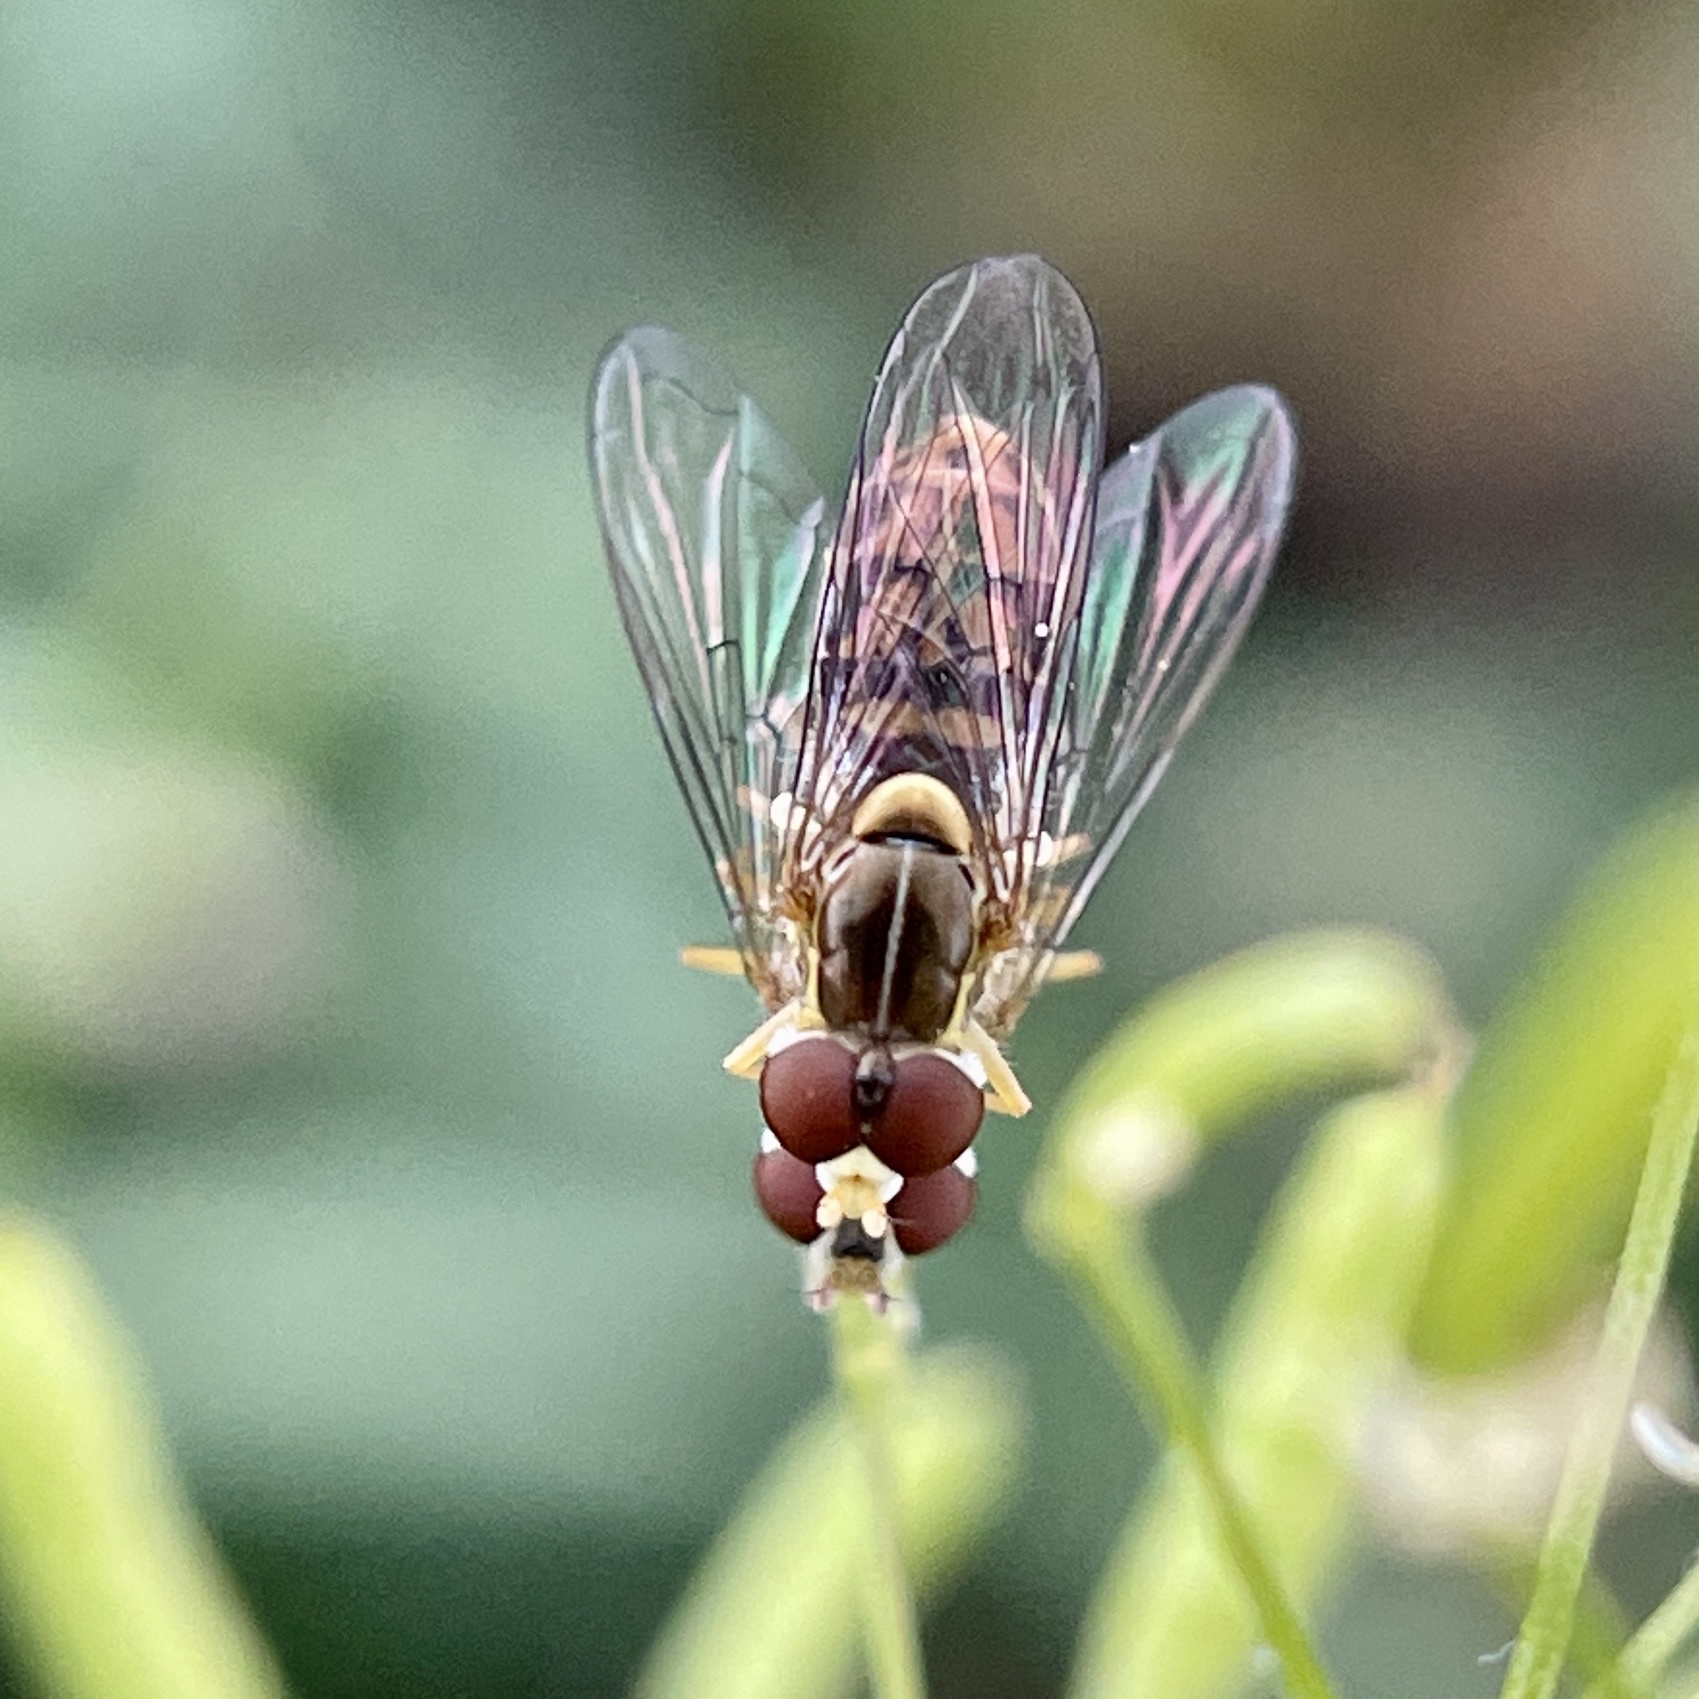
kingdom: Animalia
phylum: Arthropoda
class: Insecta
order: Diptera
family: Syrphidae
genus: Toxomerus
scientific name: Toxomerus marginatus
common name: Syrphid fly
